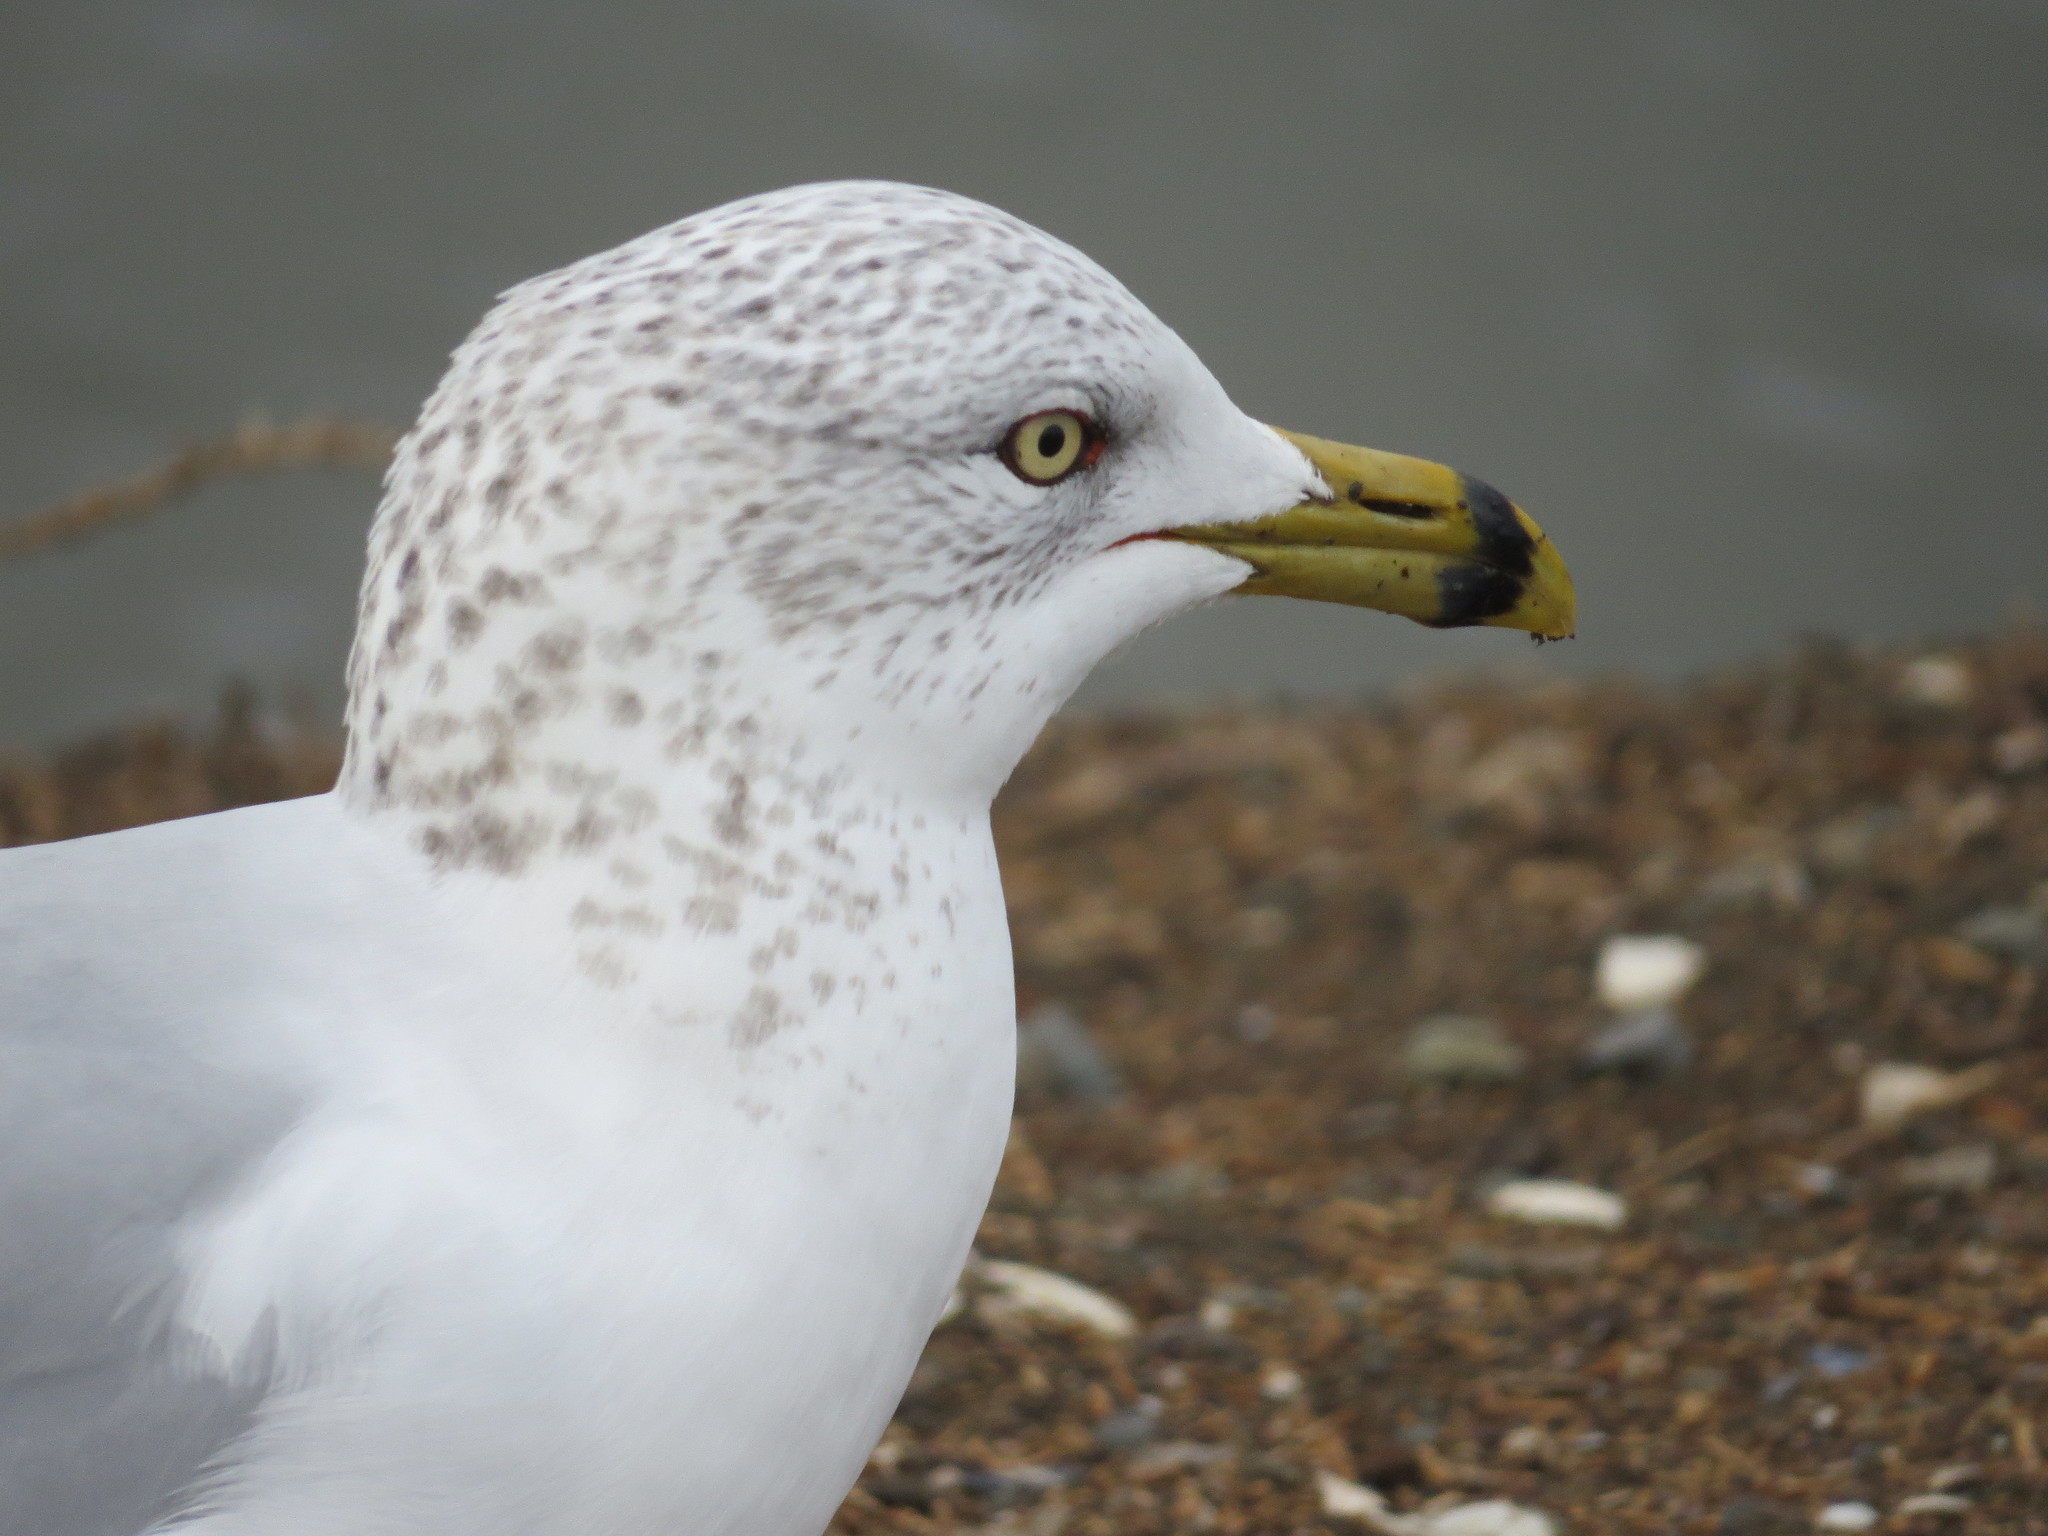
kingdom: Animalia
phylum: Chordata
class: Aves
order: Charadriiformes
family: Laridae
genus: Larus
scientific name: Larus delawarensis
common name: Ring-billed gull
